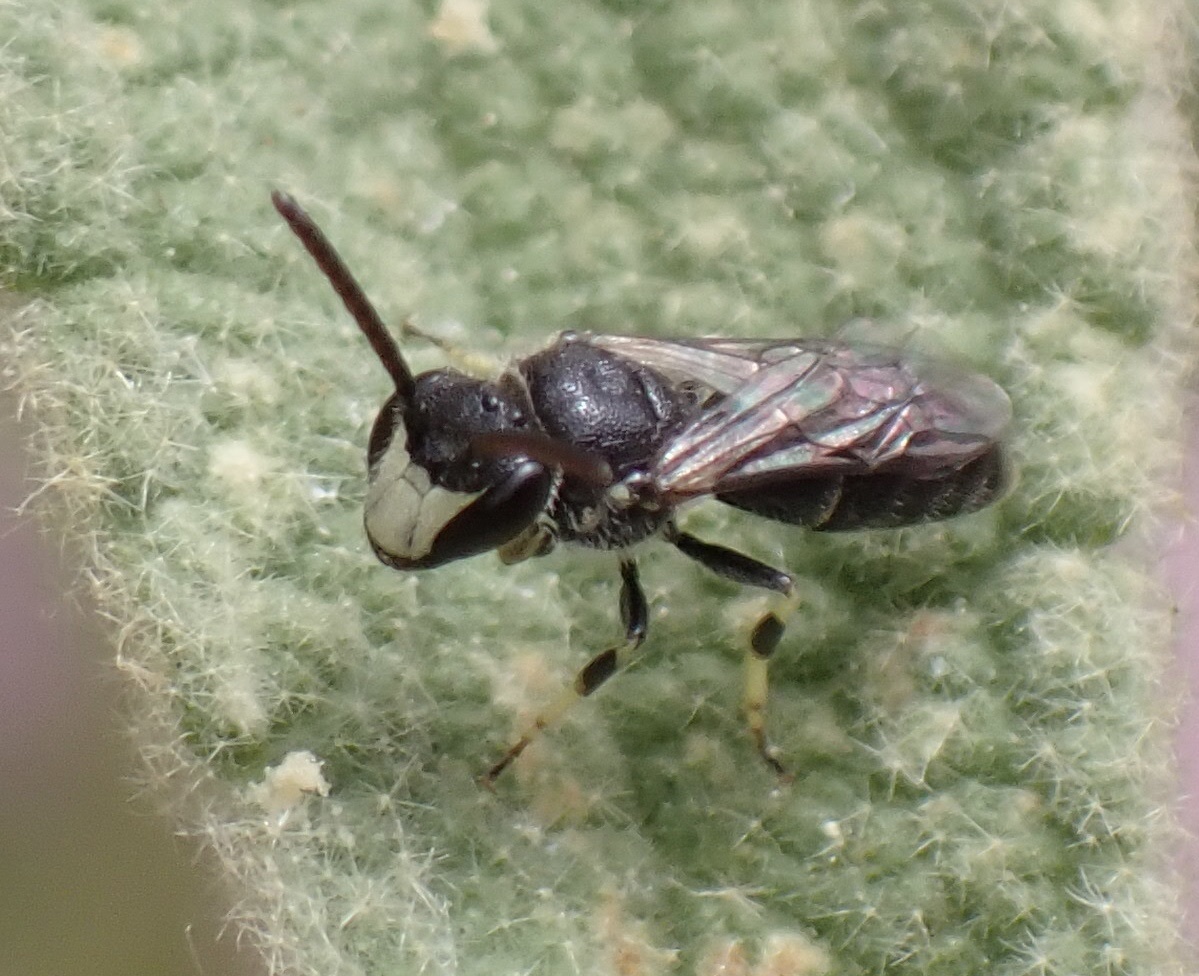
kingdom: Animalia
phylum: Arthropoda
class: Insecta
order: Hymenoptera
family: Colletidae
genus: Hylaeus
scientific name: Hylaeus hyalinatus
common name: Hyaline masked bee
